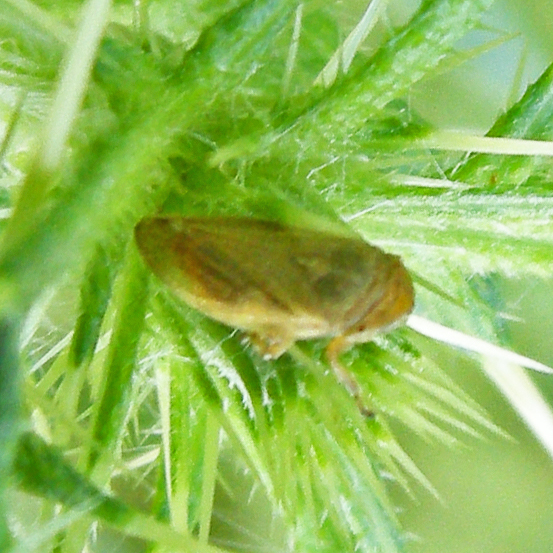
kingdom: Animalia
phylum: Arthropoda
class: Insecta
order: Hemiptera
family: Aphrophoridae
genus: Philaenus
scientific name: Philaenus spumarius
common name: Meadow spittlebug
